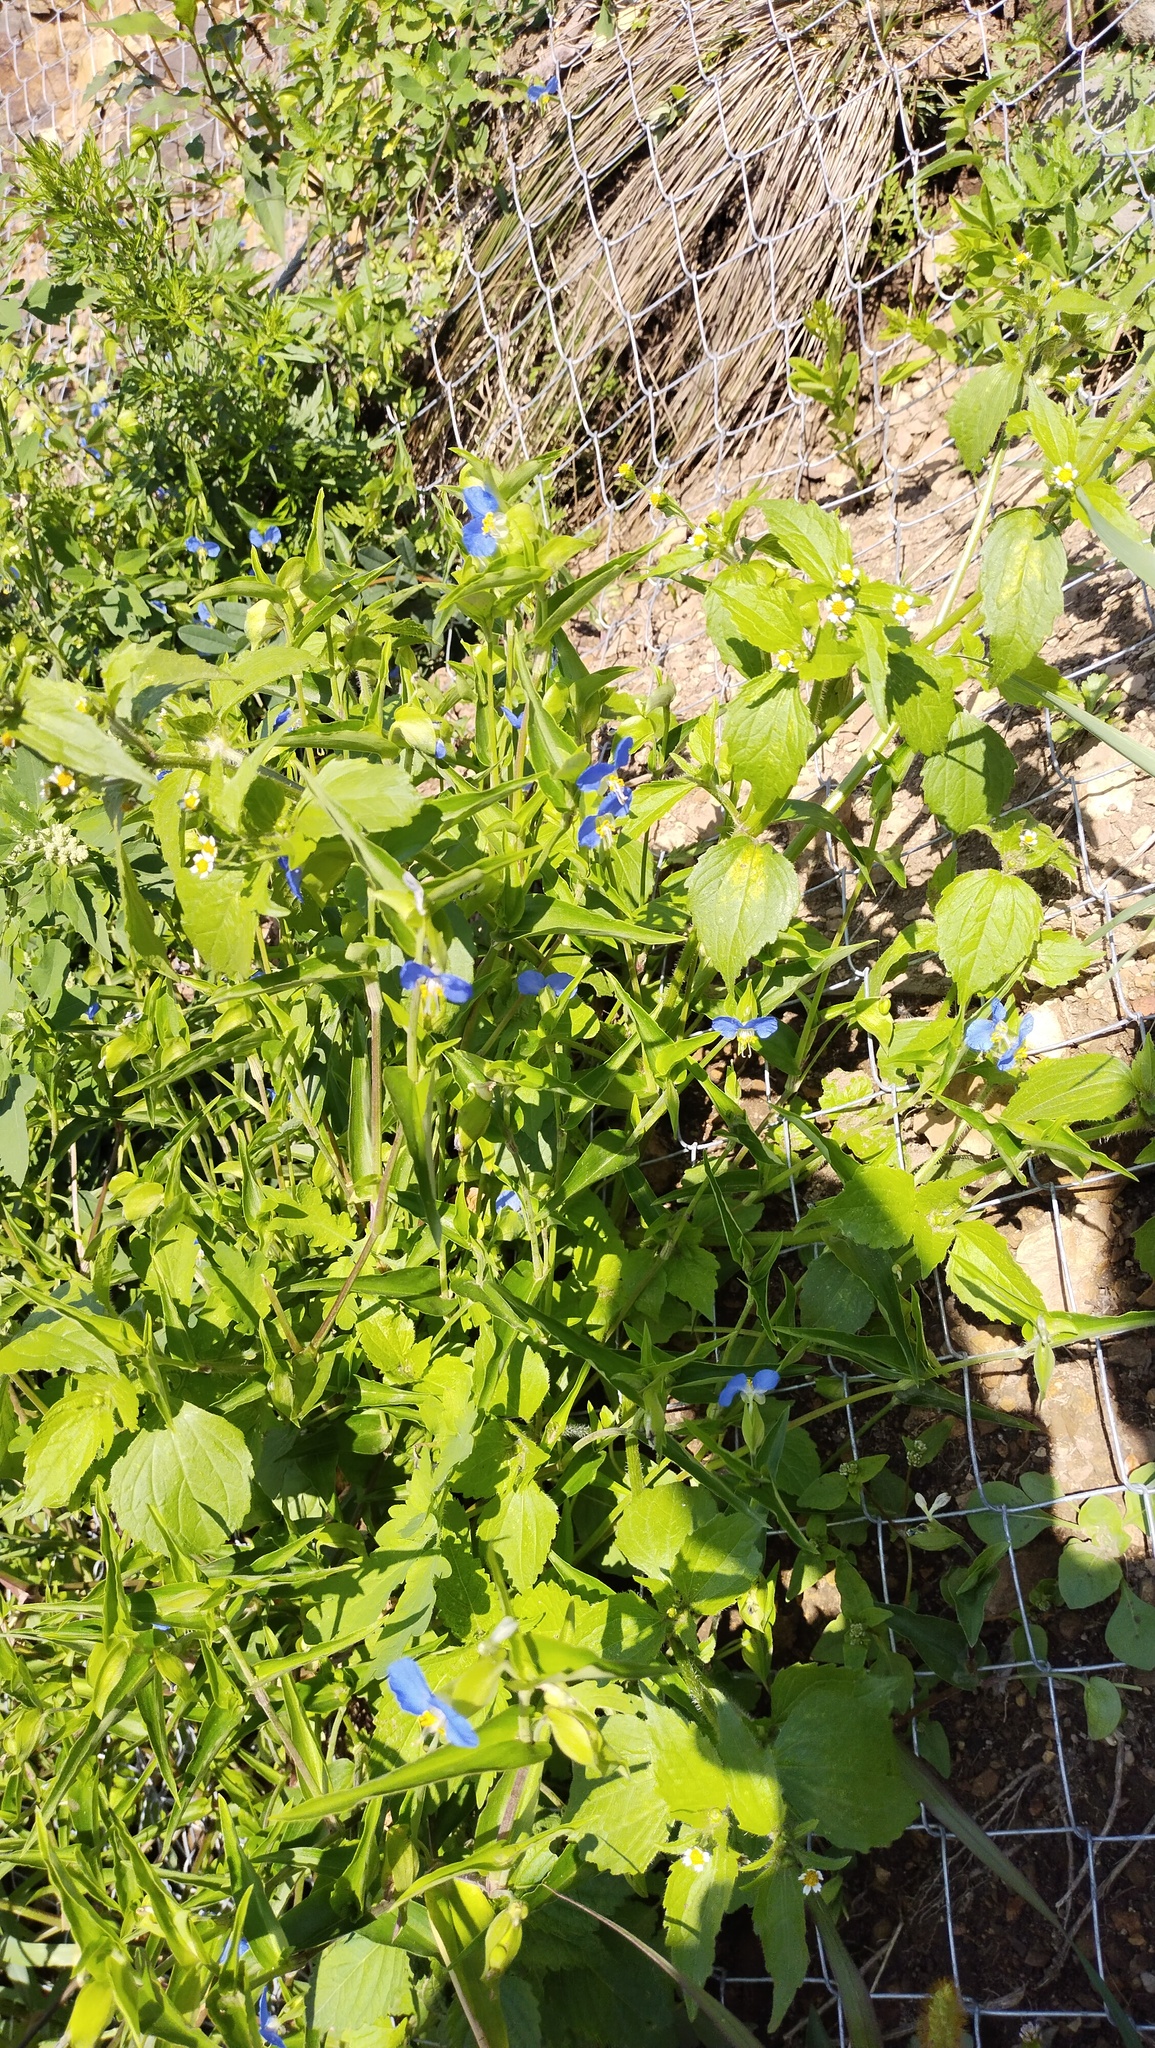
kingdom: Plantae
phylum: Tracheophyta
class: Liliopsida
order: Commelinales
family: Commelinaceae
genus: Commelina
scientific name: Commelina communis
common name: Asiatic dayflower
